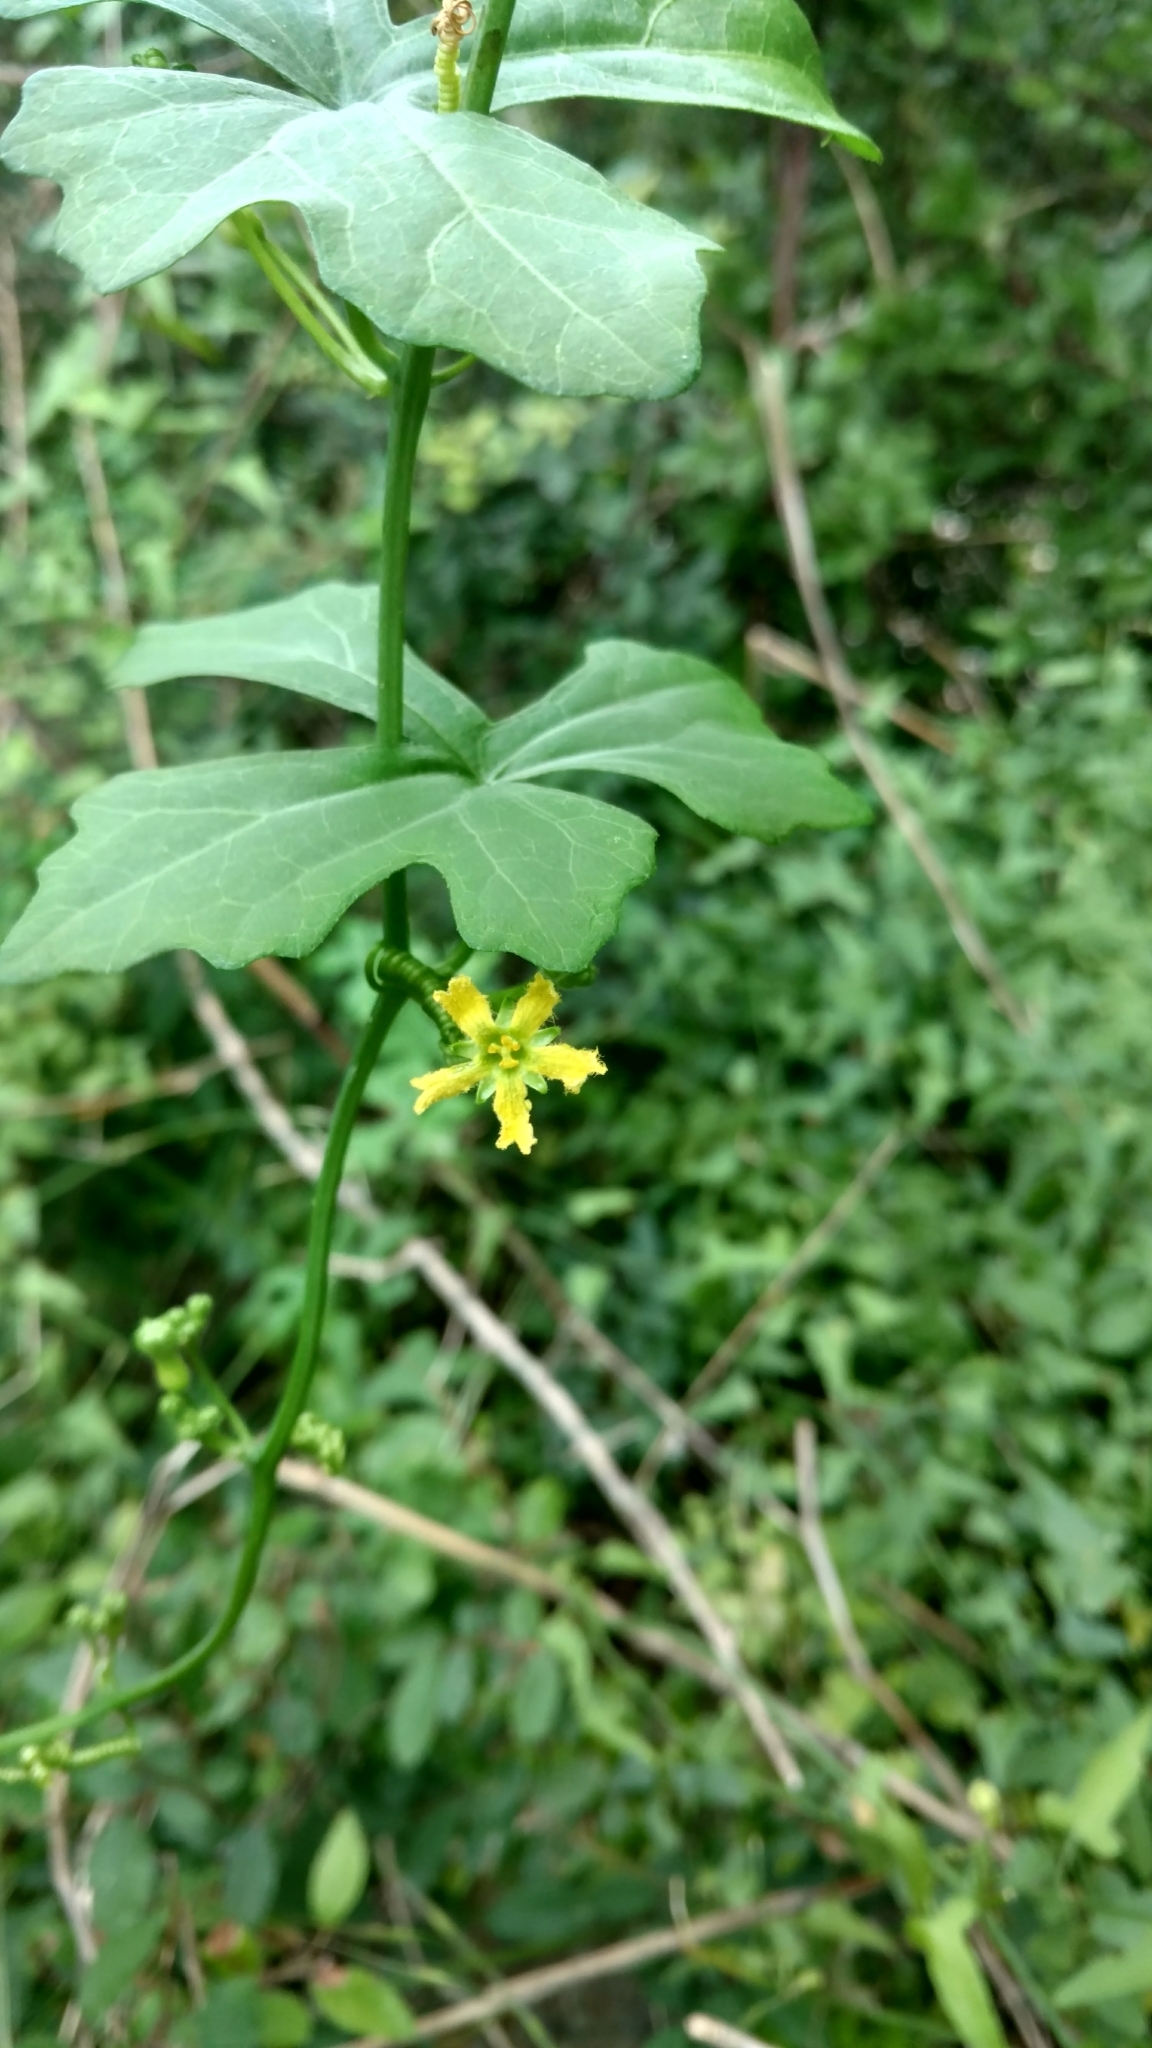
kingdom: Plantae
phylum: Tracheophyta
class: Magnoliopsida
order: Cucurbitales
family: Cucurbitaceae
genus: Ibervillea
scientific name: Ibervillea lindheimeri
